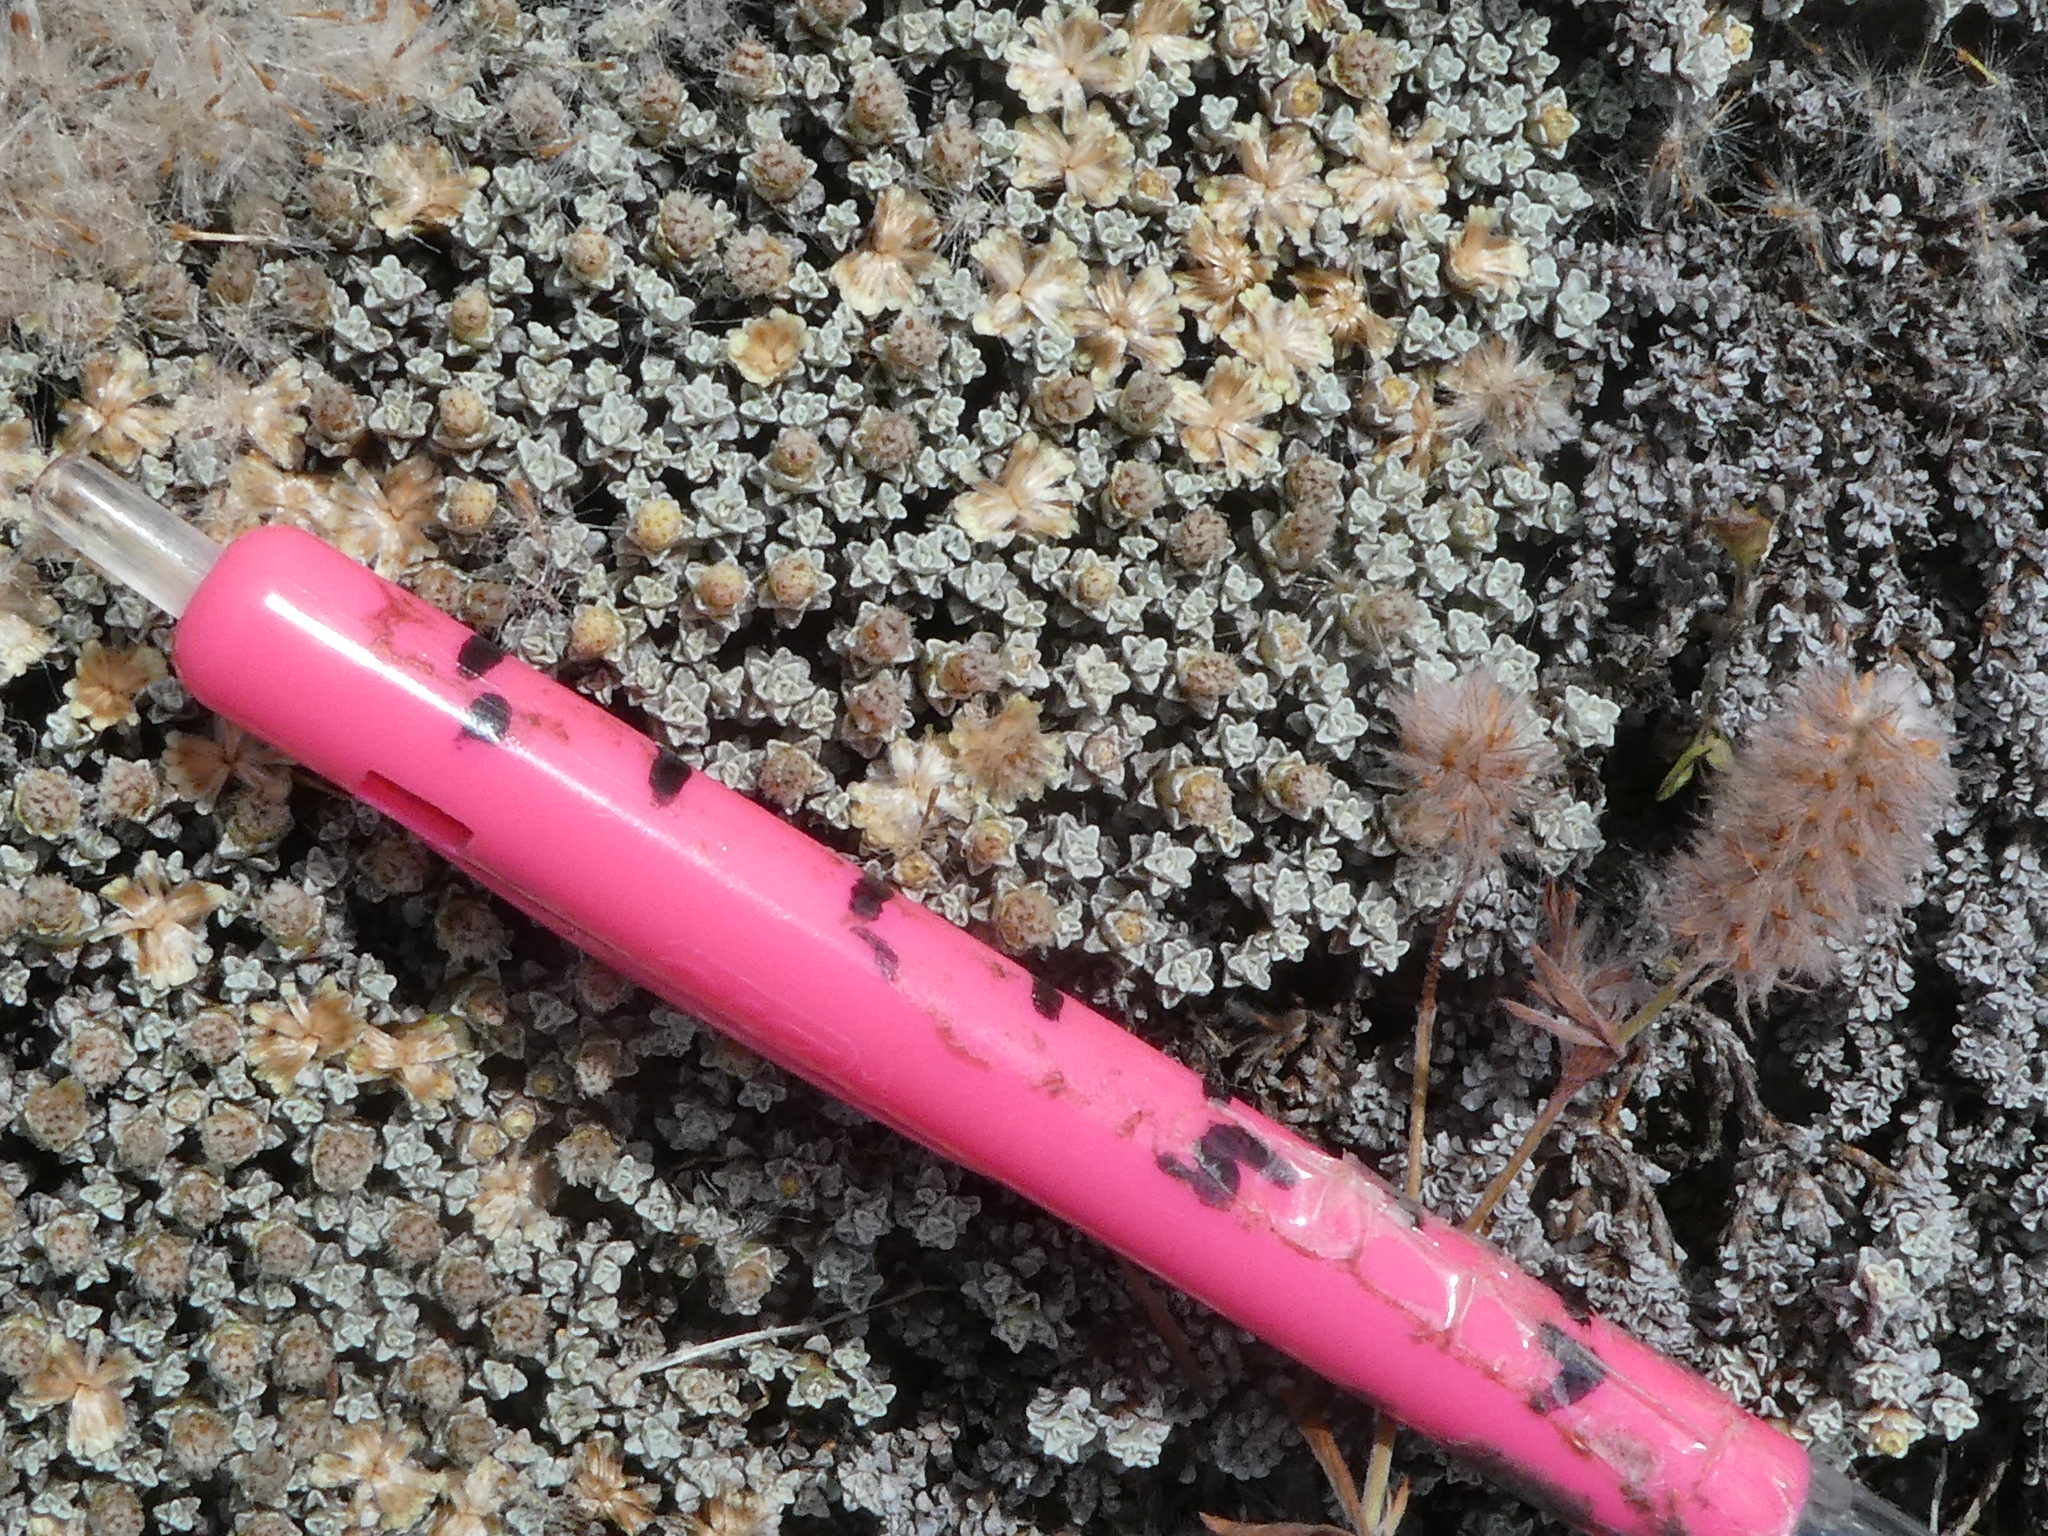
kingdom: Plantae
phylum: Tracheophyta
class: Magnoliopsida
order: Asterales
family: Asteraceae
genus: Raoulia
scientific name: Raoulia hookeri
